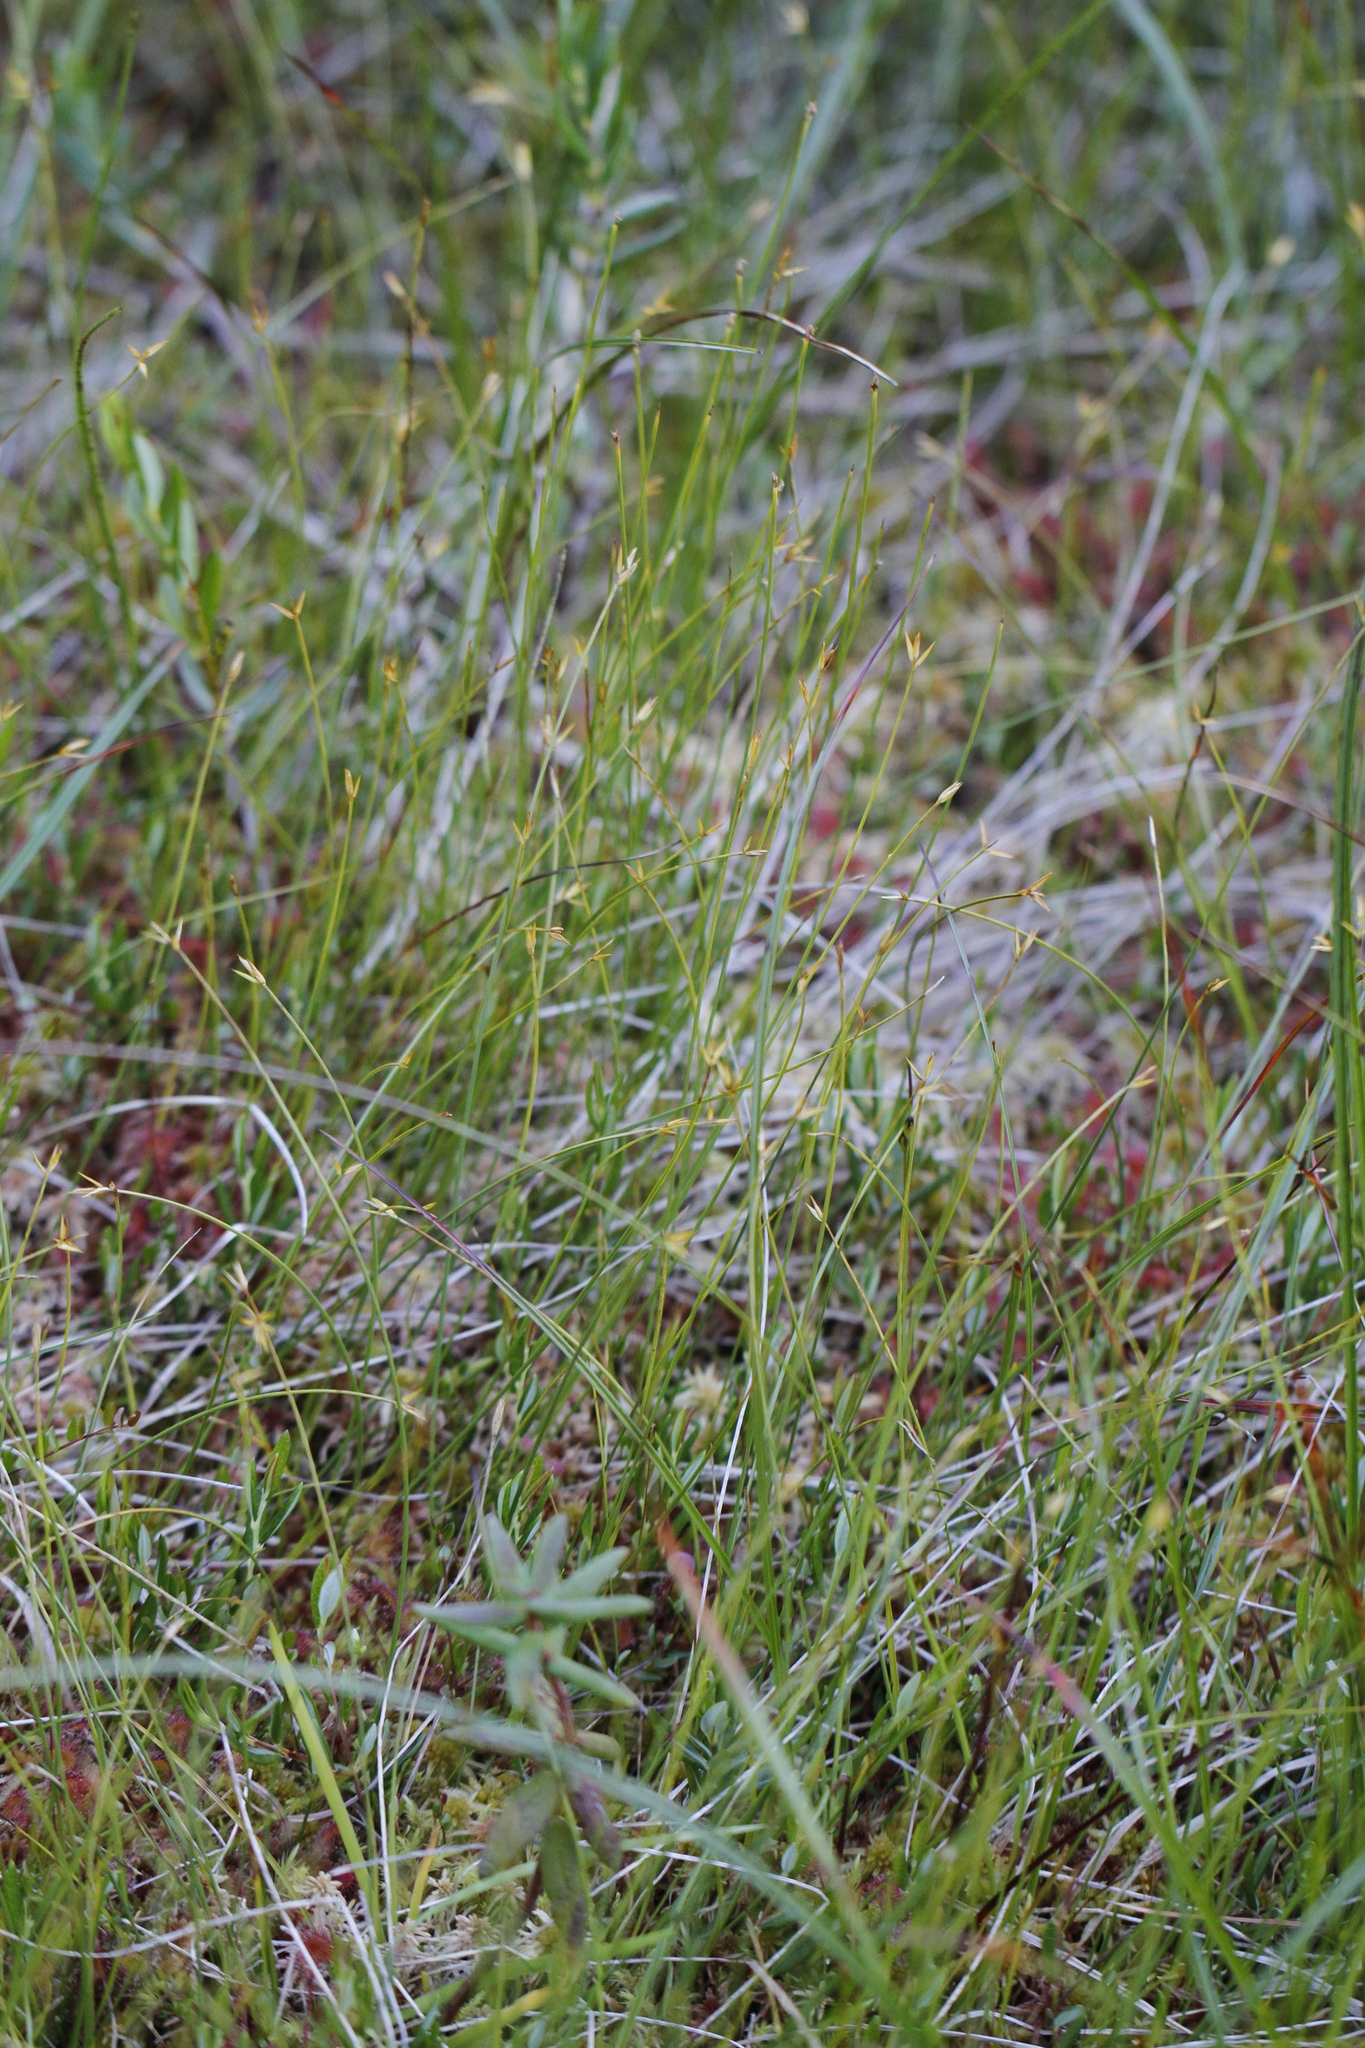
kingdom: Plantae
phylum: Tracheophyta
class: Liliopsida
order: Poales
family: Cyperaceae
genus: Carex
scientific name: Carex pauciflora
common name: Few-flowered sedge
